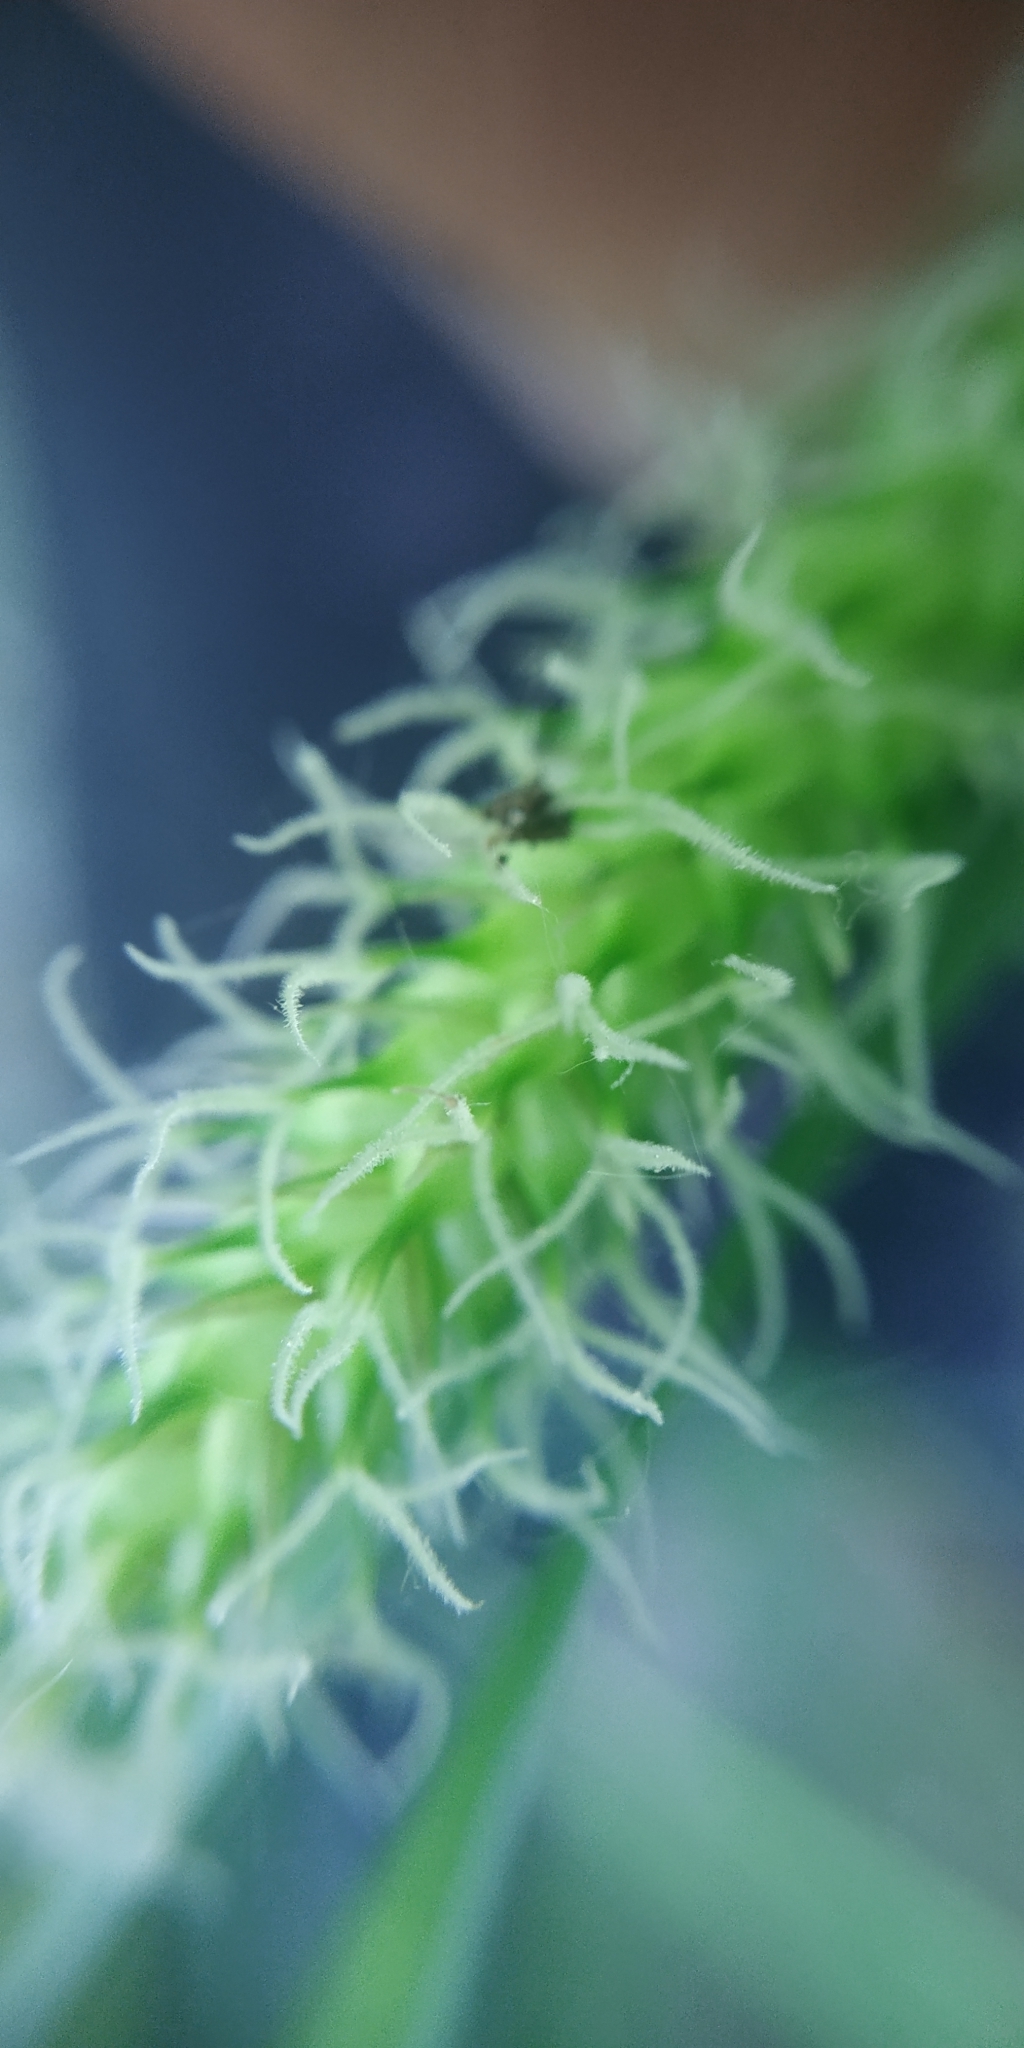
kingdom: Plantae
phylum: Tracheophyta
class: Liliopsida
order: Poales
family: Cyperaceae
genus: Carex
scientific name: Carex vesicaria
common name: Bladder-sedge
